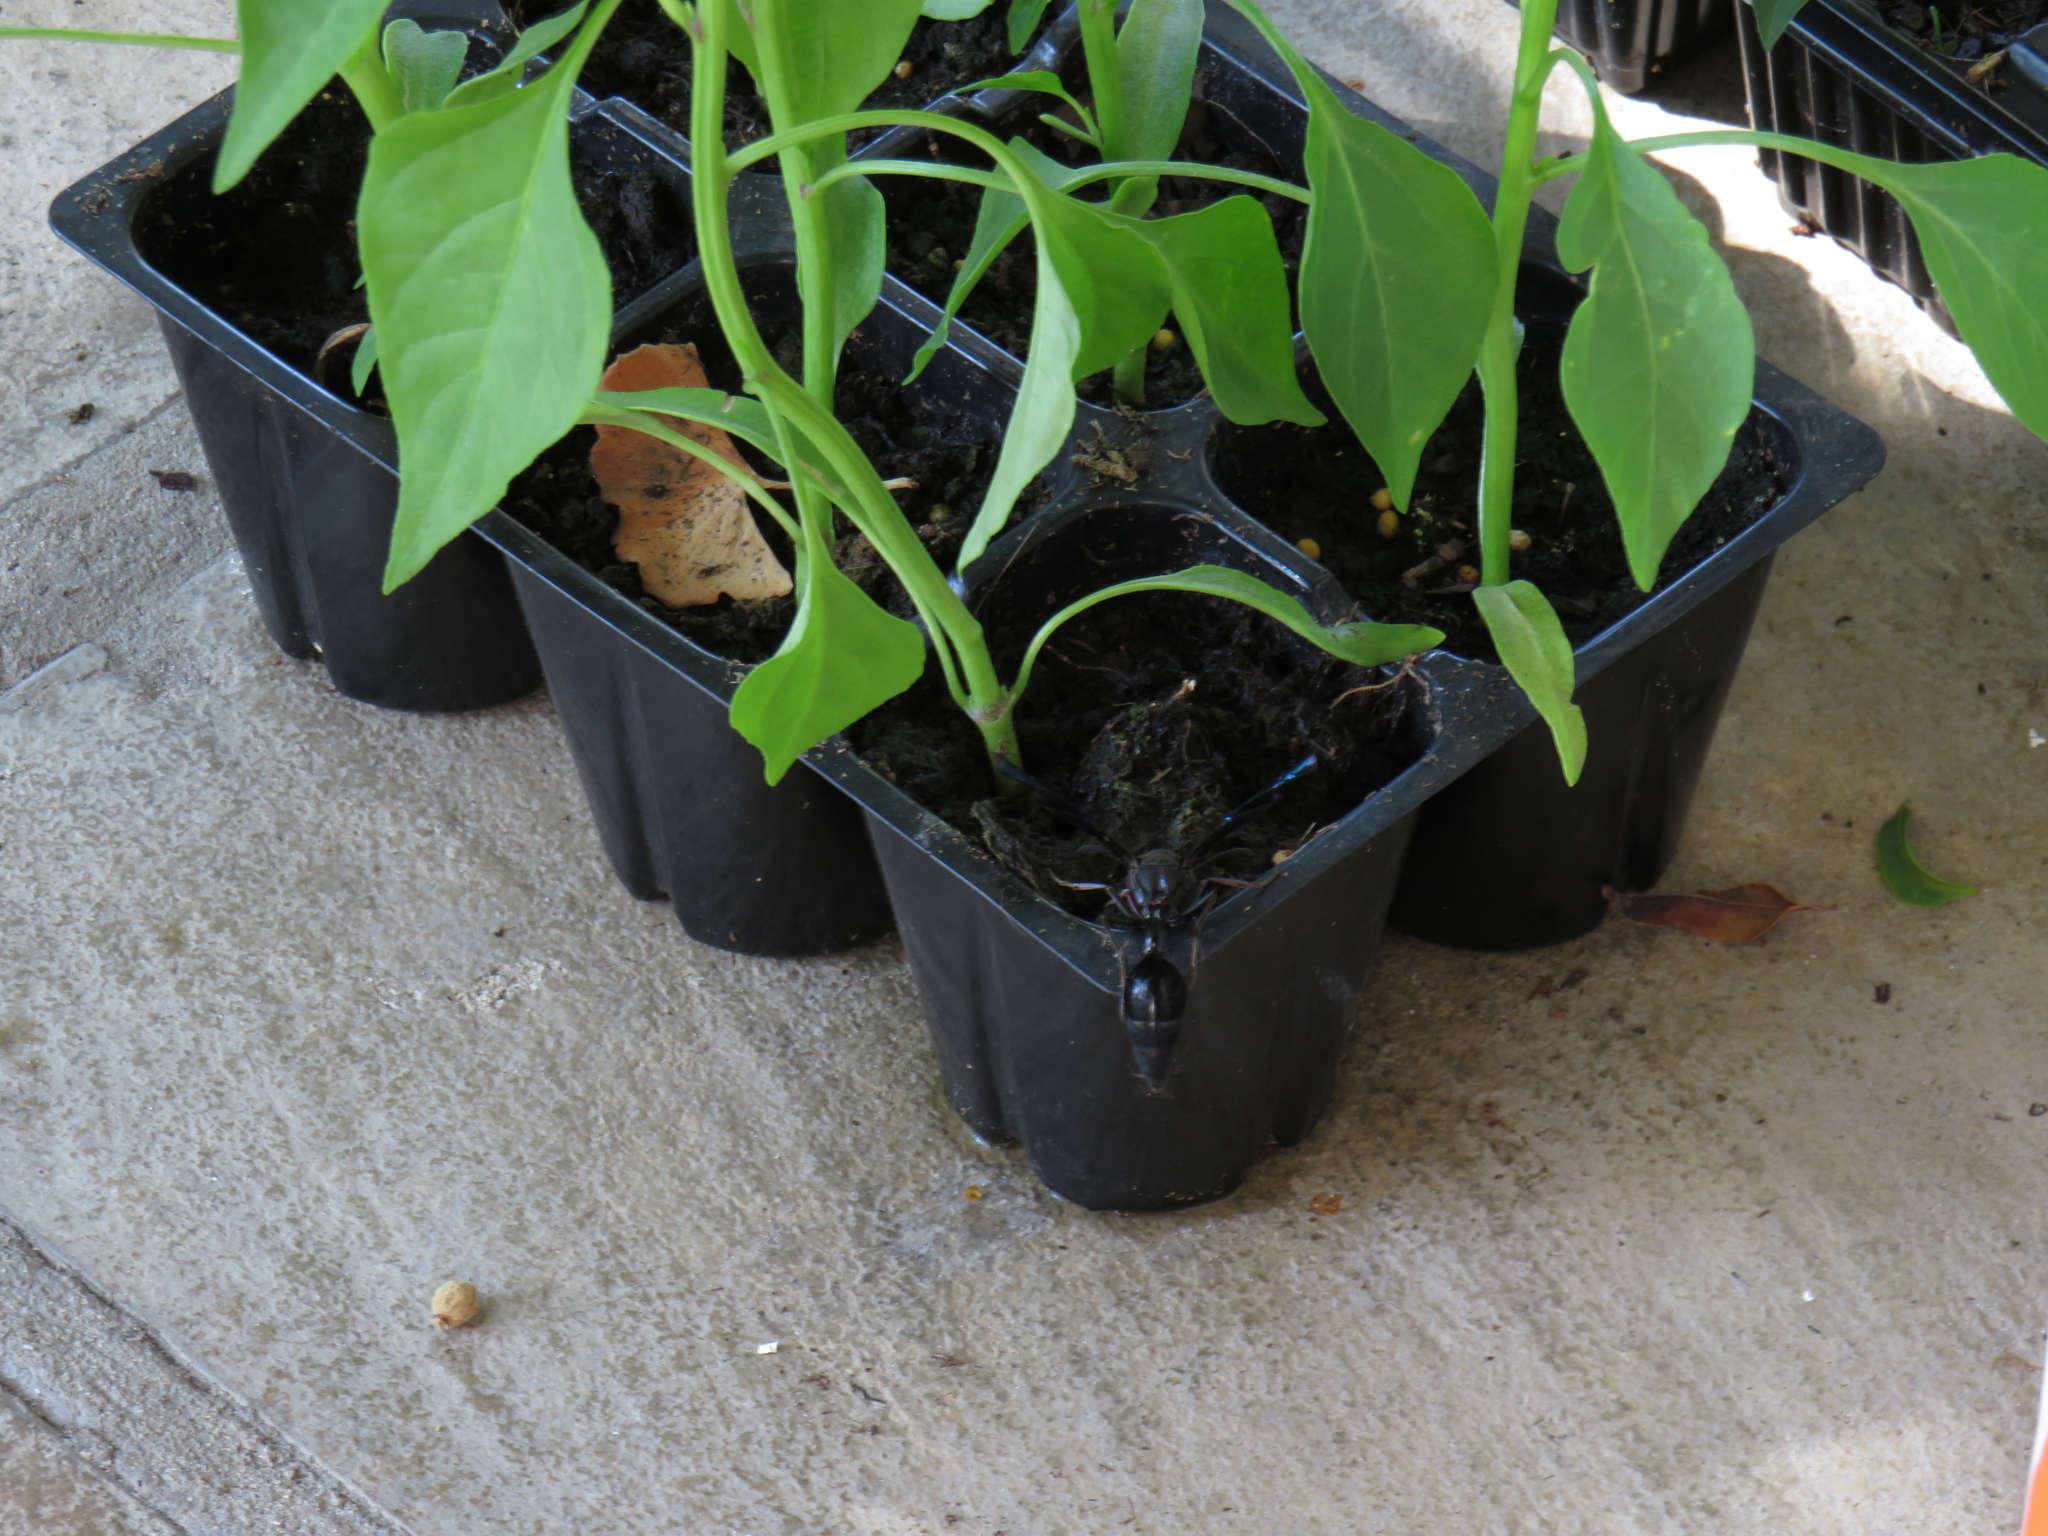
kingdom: Animalia
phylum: Arthropoda
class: Insecta
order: Hymenoptera
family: Eumenidae
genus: Delta
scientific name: Delta
